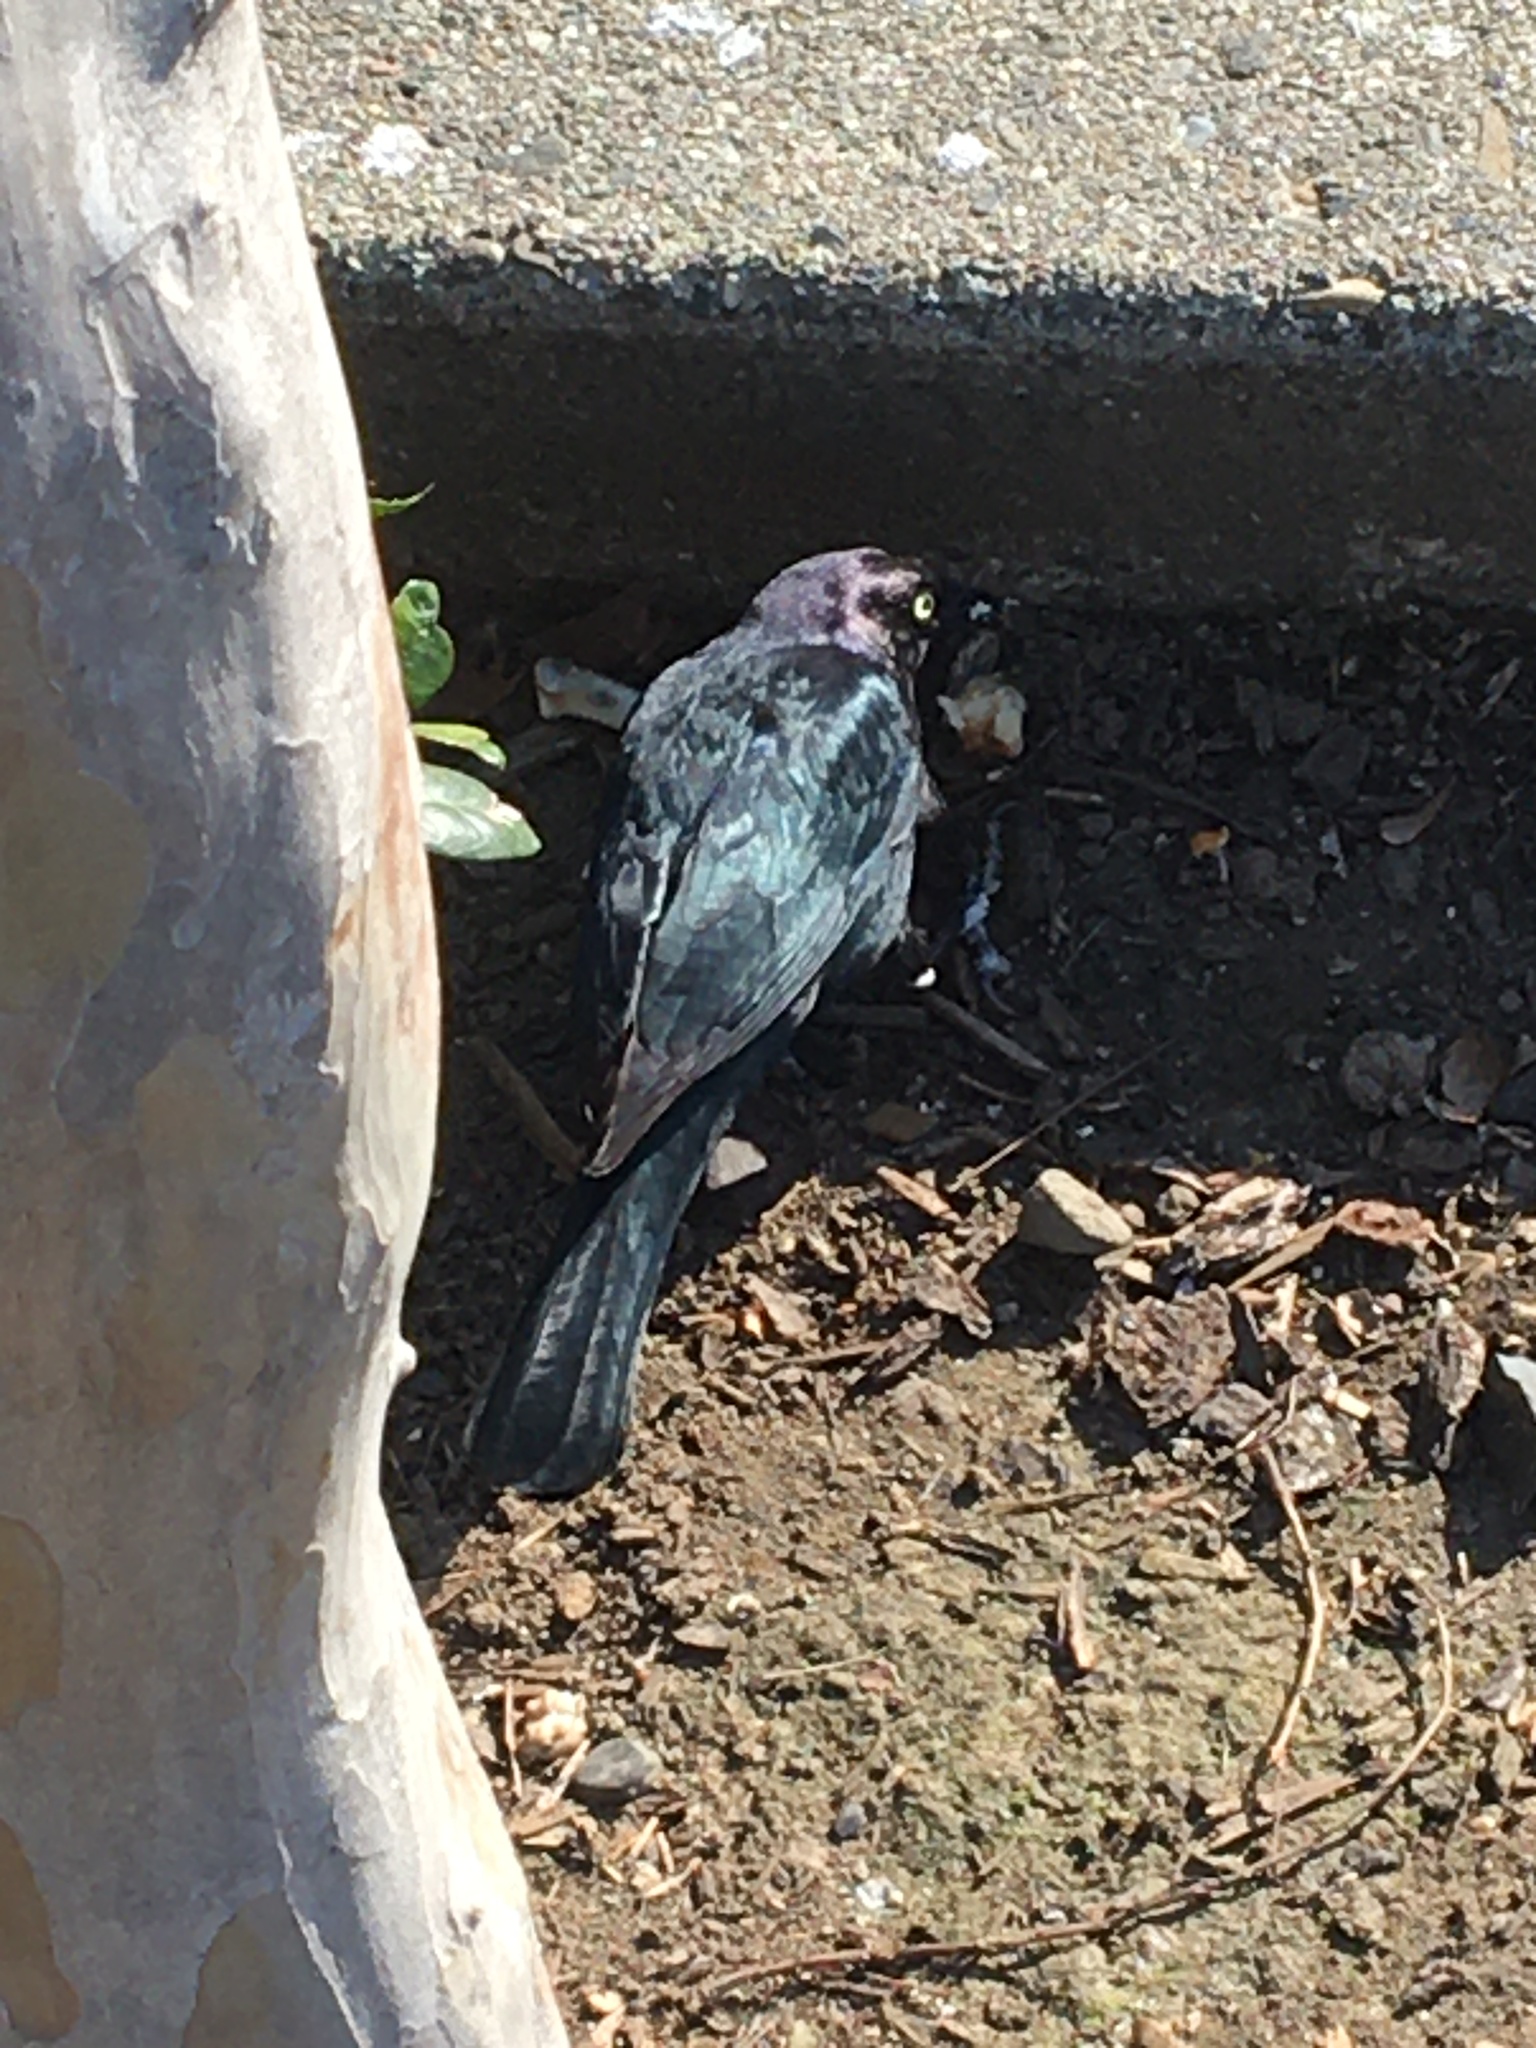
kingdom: Animalia
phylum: Chordata
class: Aves
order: Passeriformes
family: Icteridae
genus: Euphagus
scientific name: Euphagus cyanocephalus
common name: Brewer's blackbird
